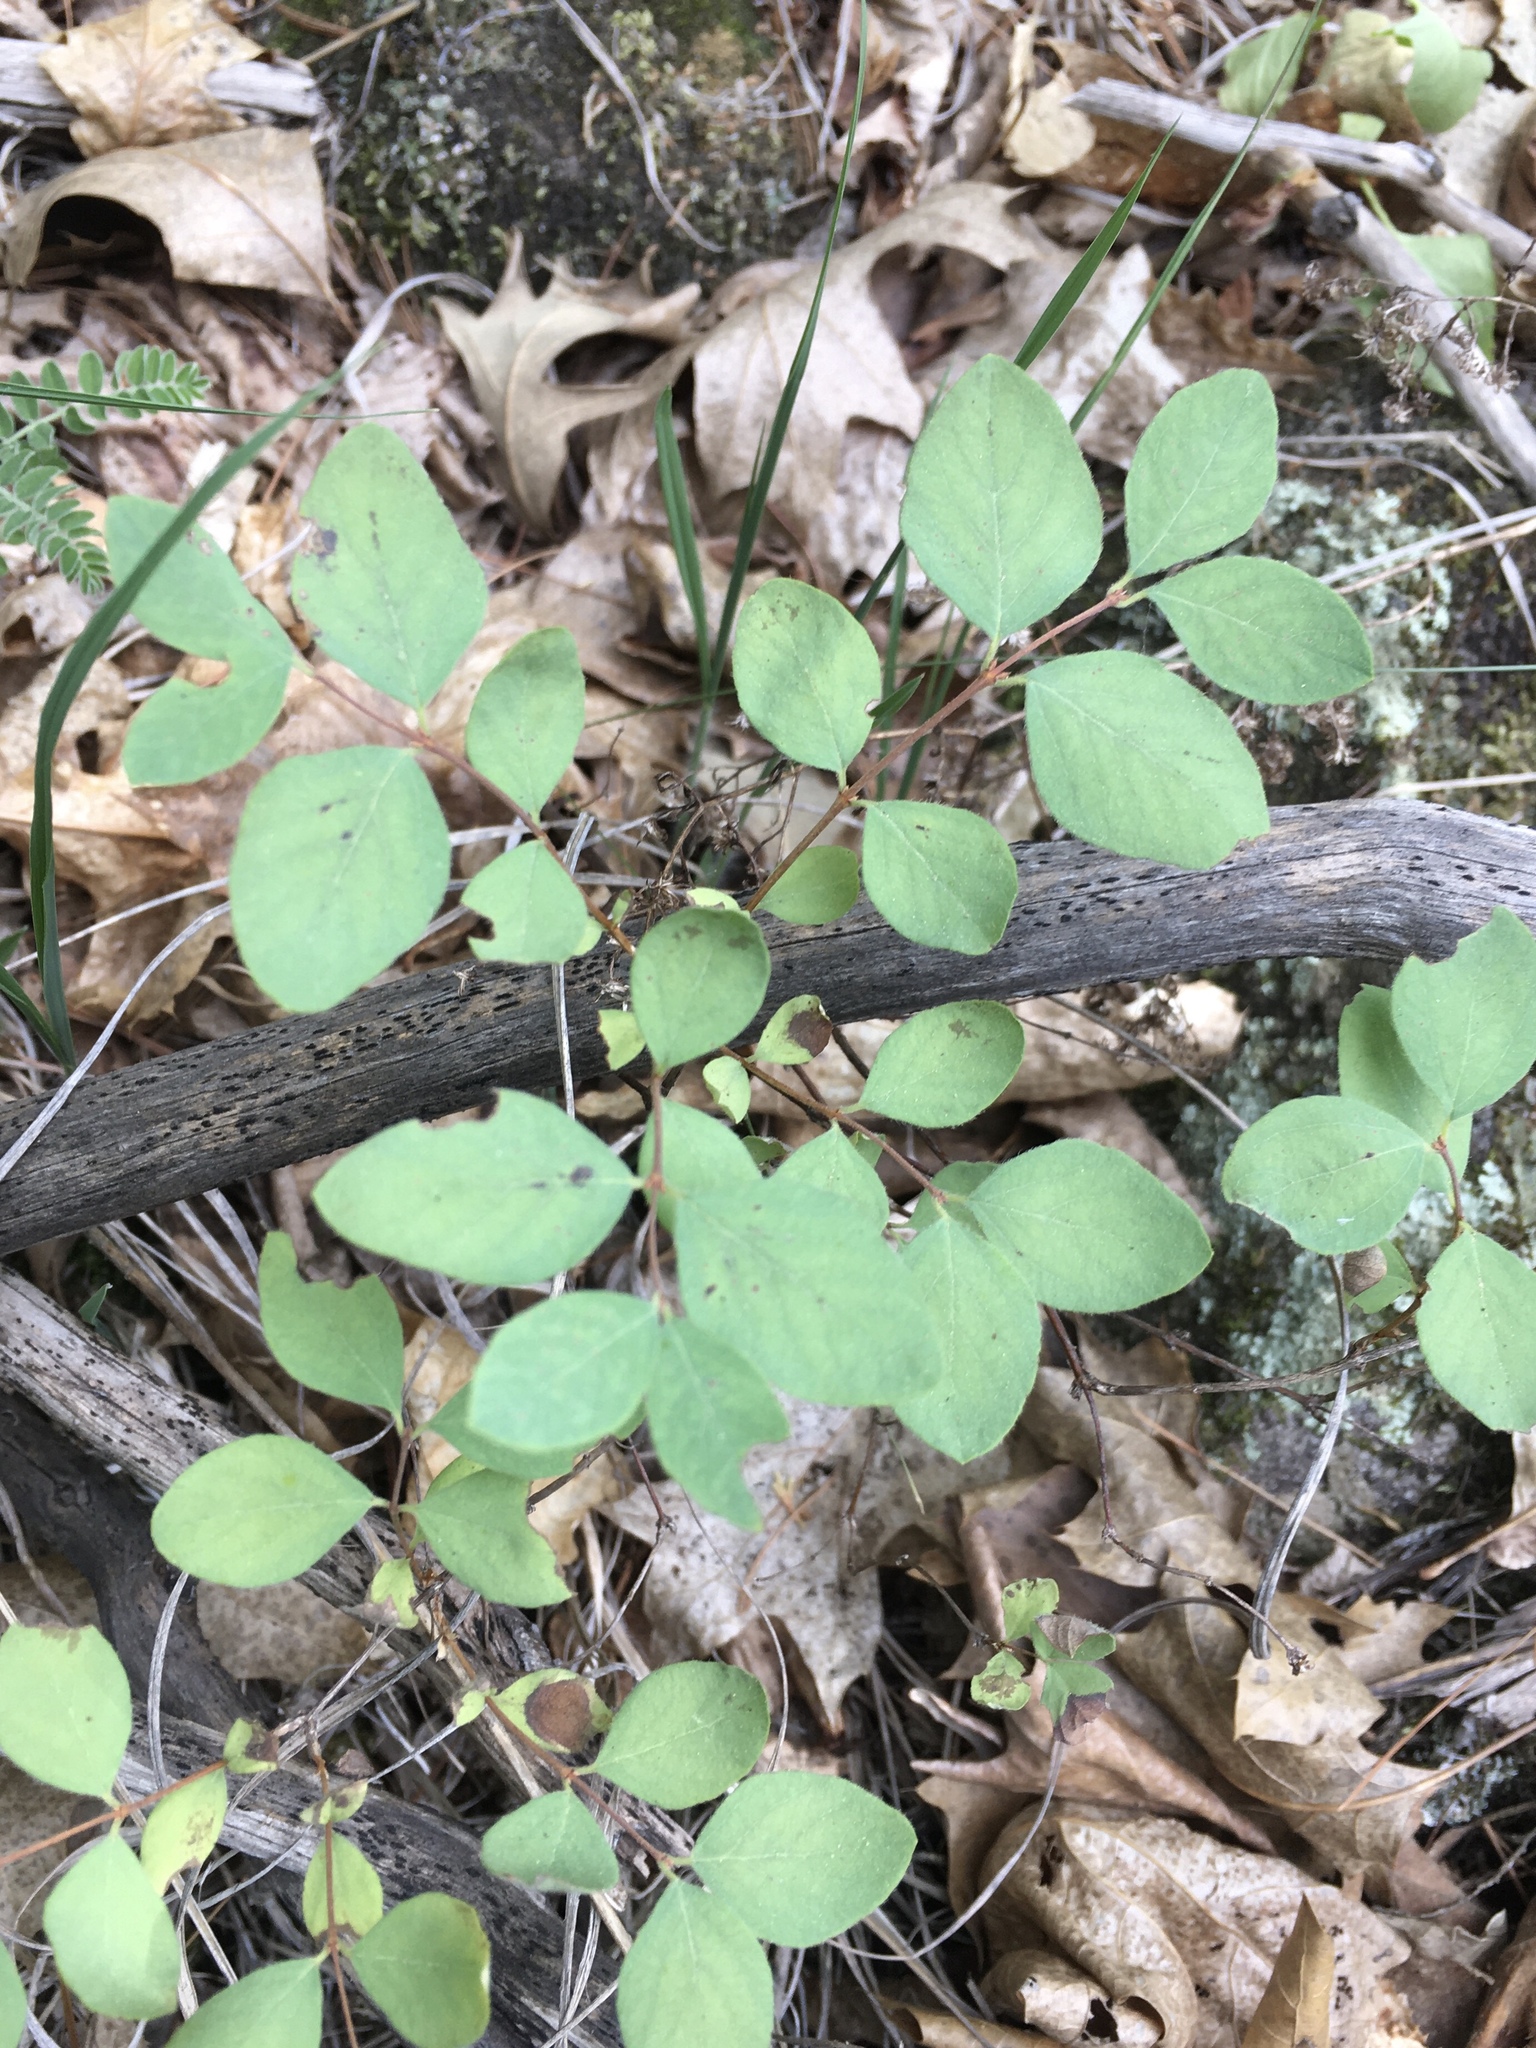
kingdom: Plantae
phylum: Tracheophyta
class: Magnoliopsida
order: Dipsacales
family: Caprifoliaceae
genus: Symphoricarpos
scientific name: Symphoricarpos albus
